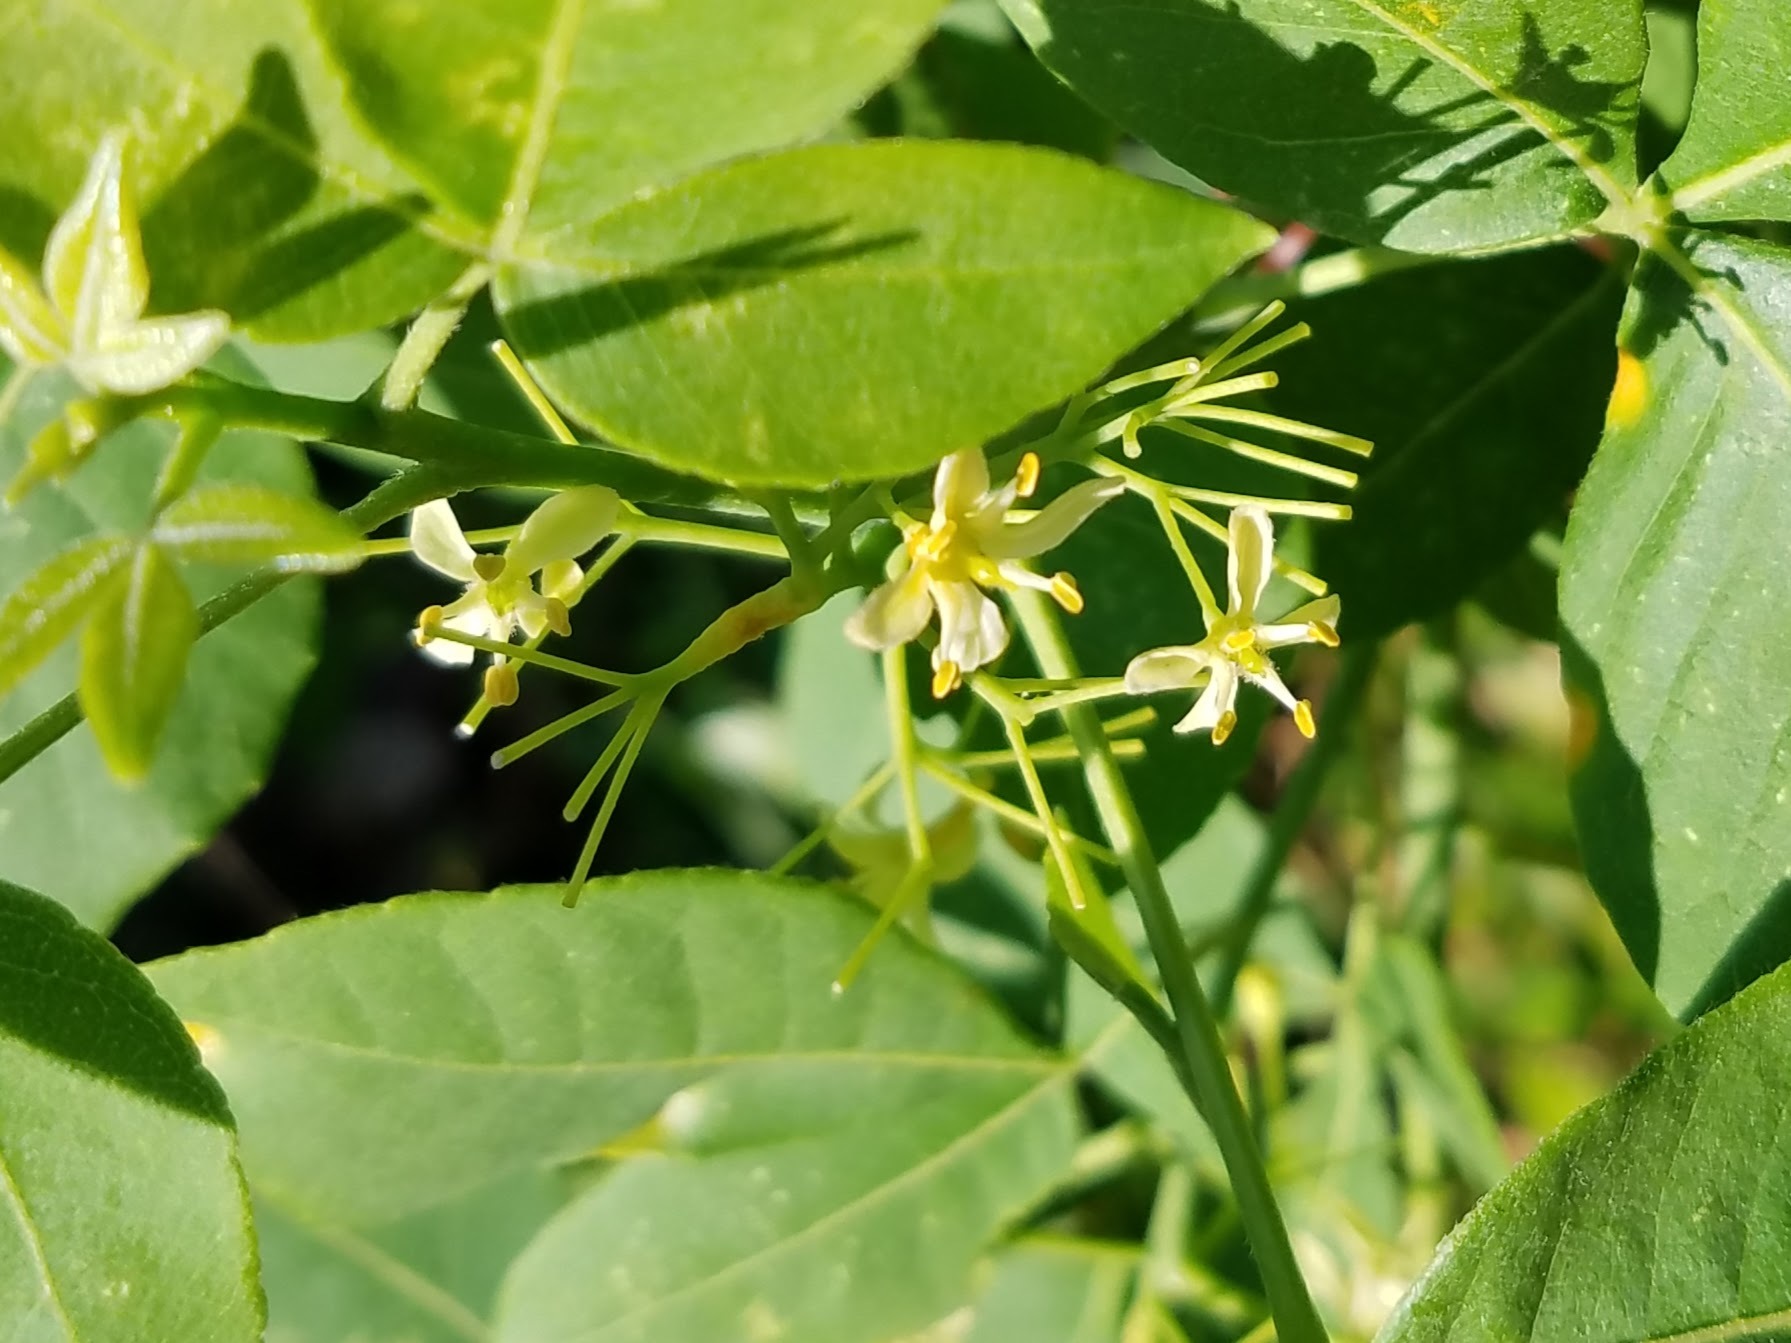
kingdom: Plantae
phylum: Tracheophyta
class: Magnoliopsida
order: Sapindales
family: Rutaceae
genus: Ptelea
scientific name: Ptelea trifoliata
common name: Common hop-tree
